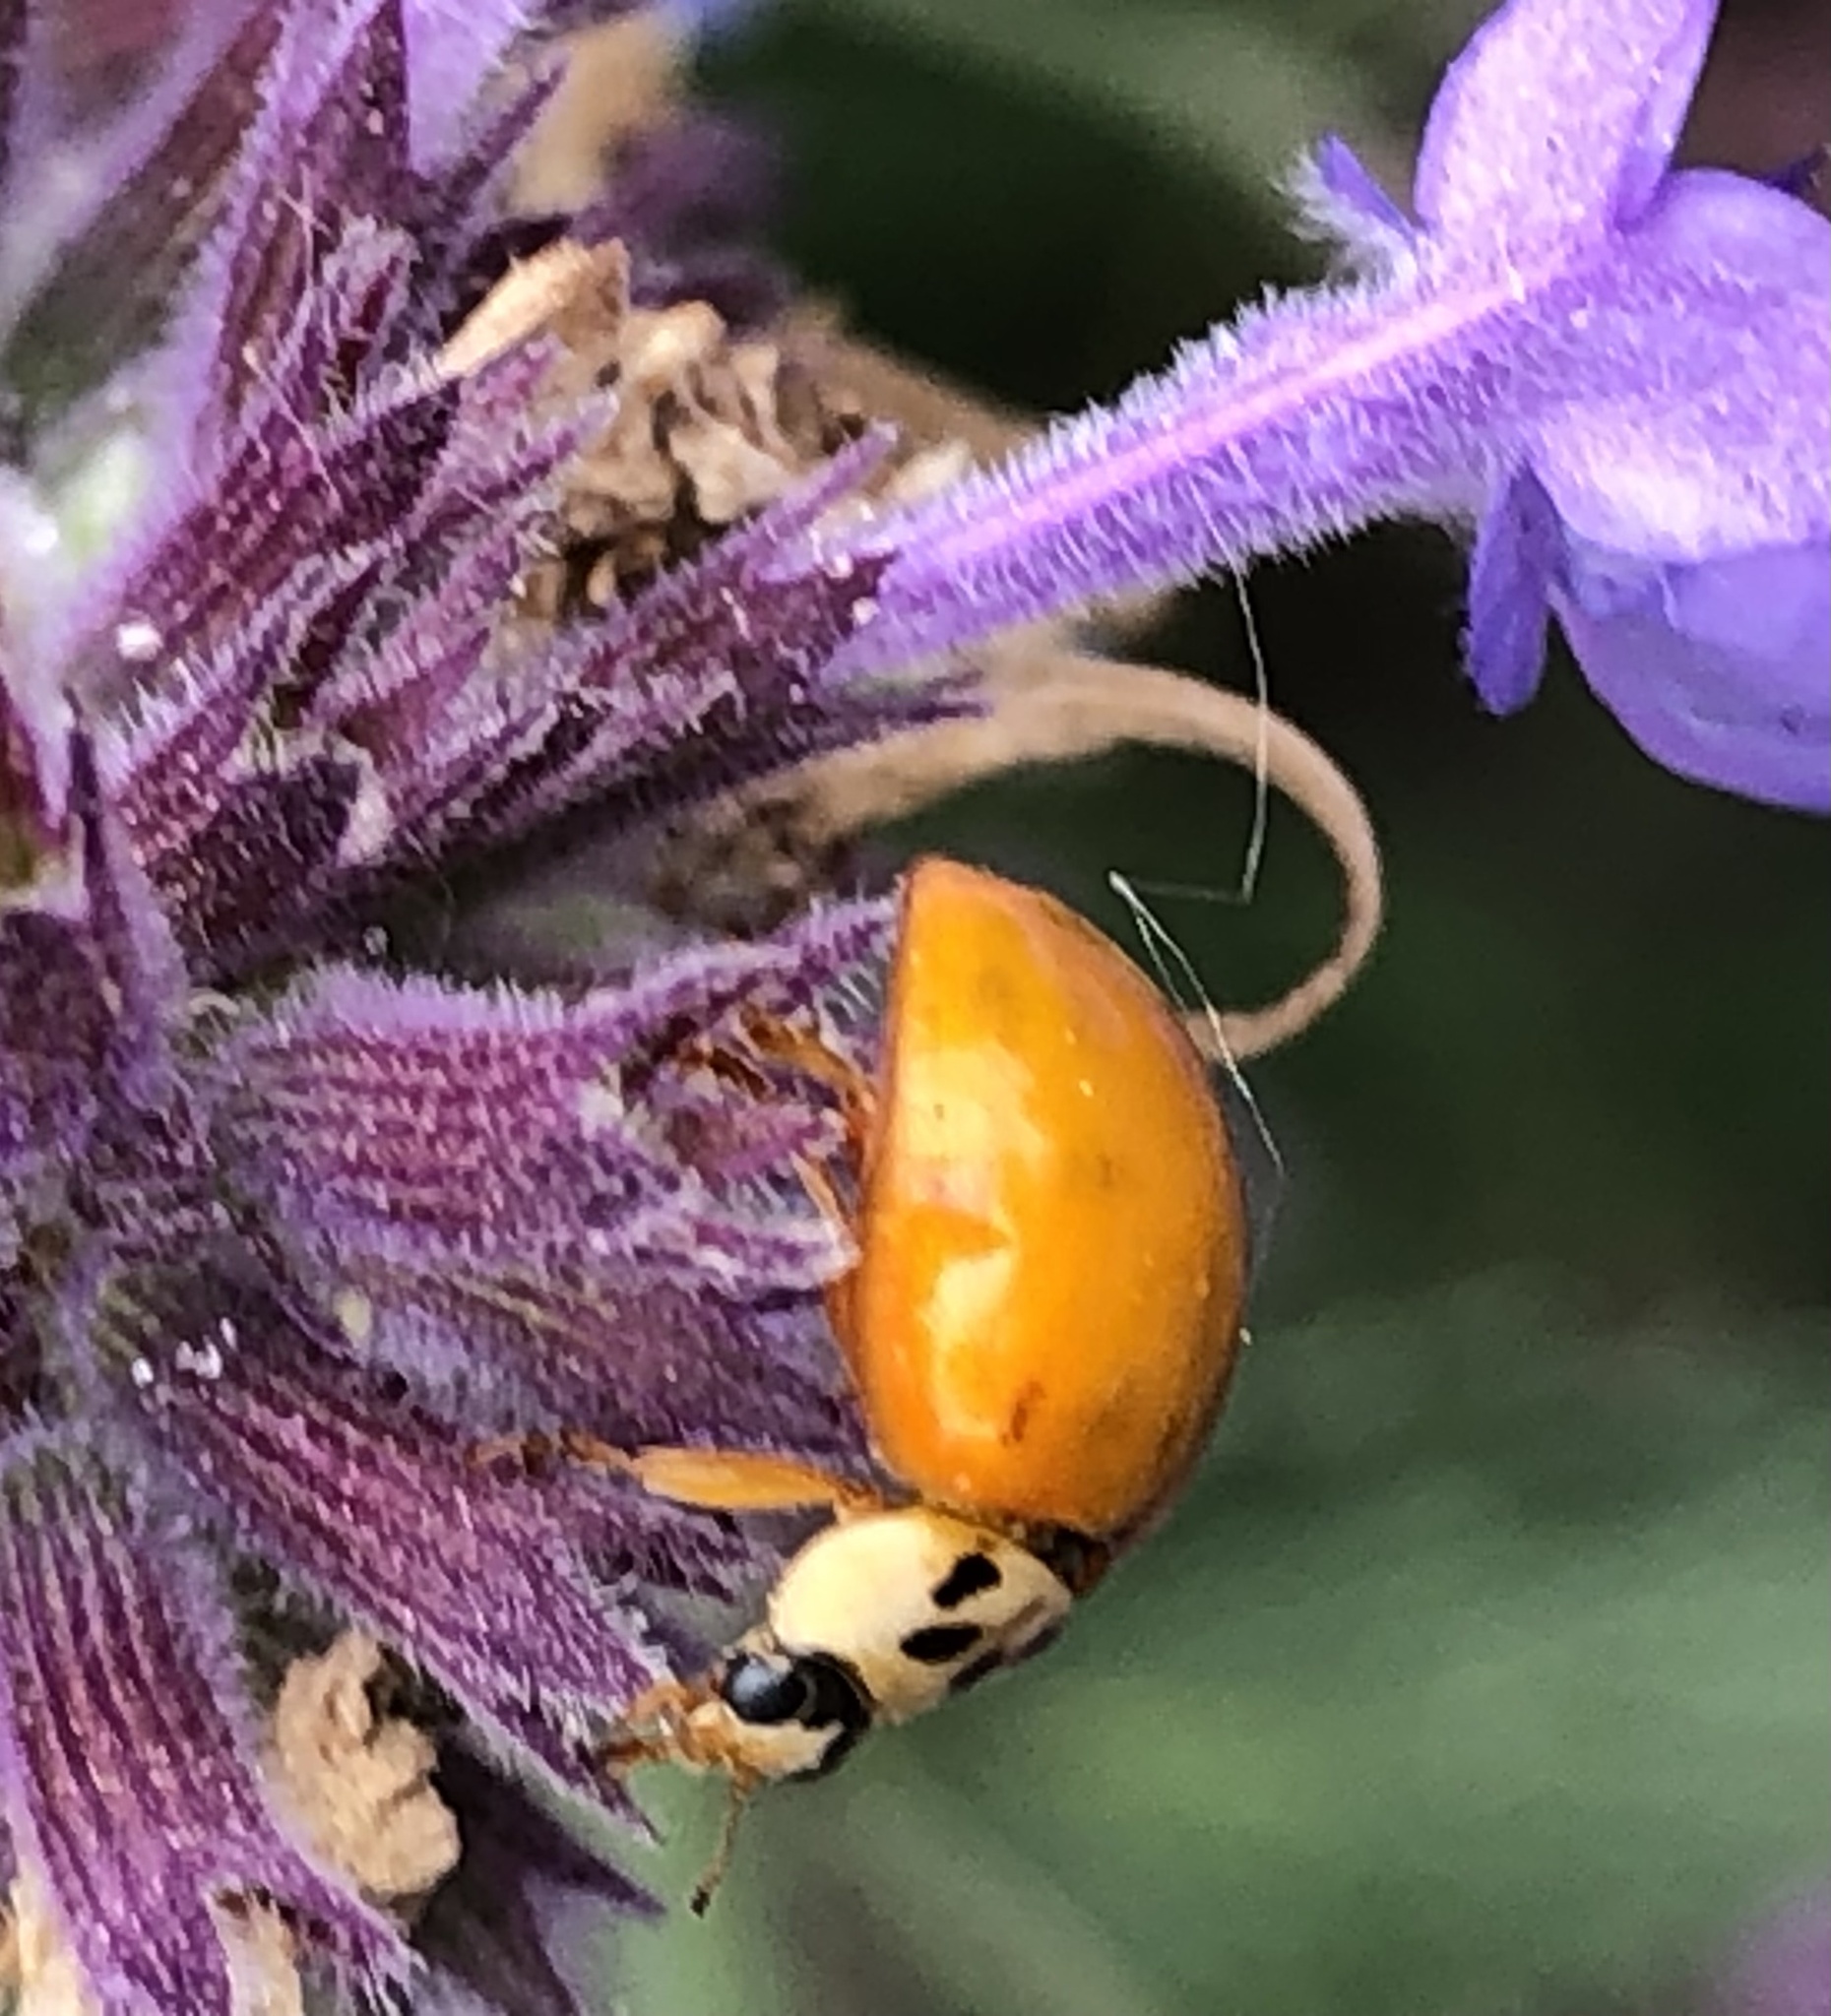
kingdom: Animalia
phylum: Arthropoda
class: Insecta
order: Coleoptera
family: Coccinellidae
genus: Harmonia
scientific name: Harmonia axyridis
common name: Harlequin ladybird
